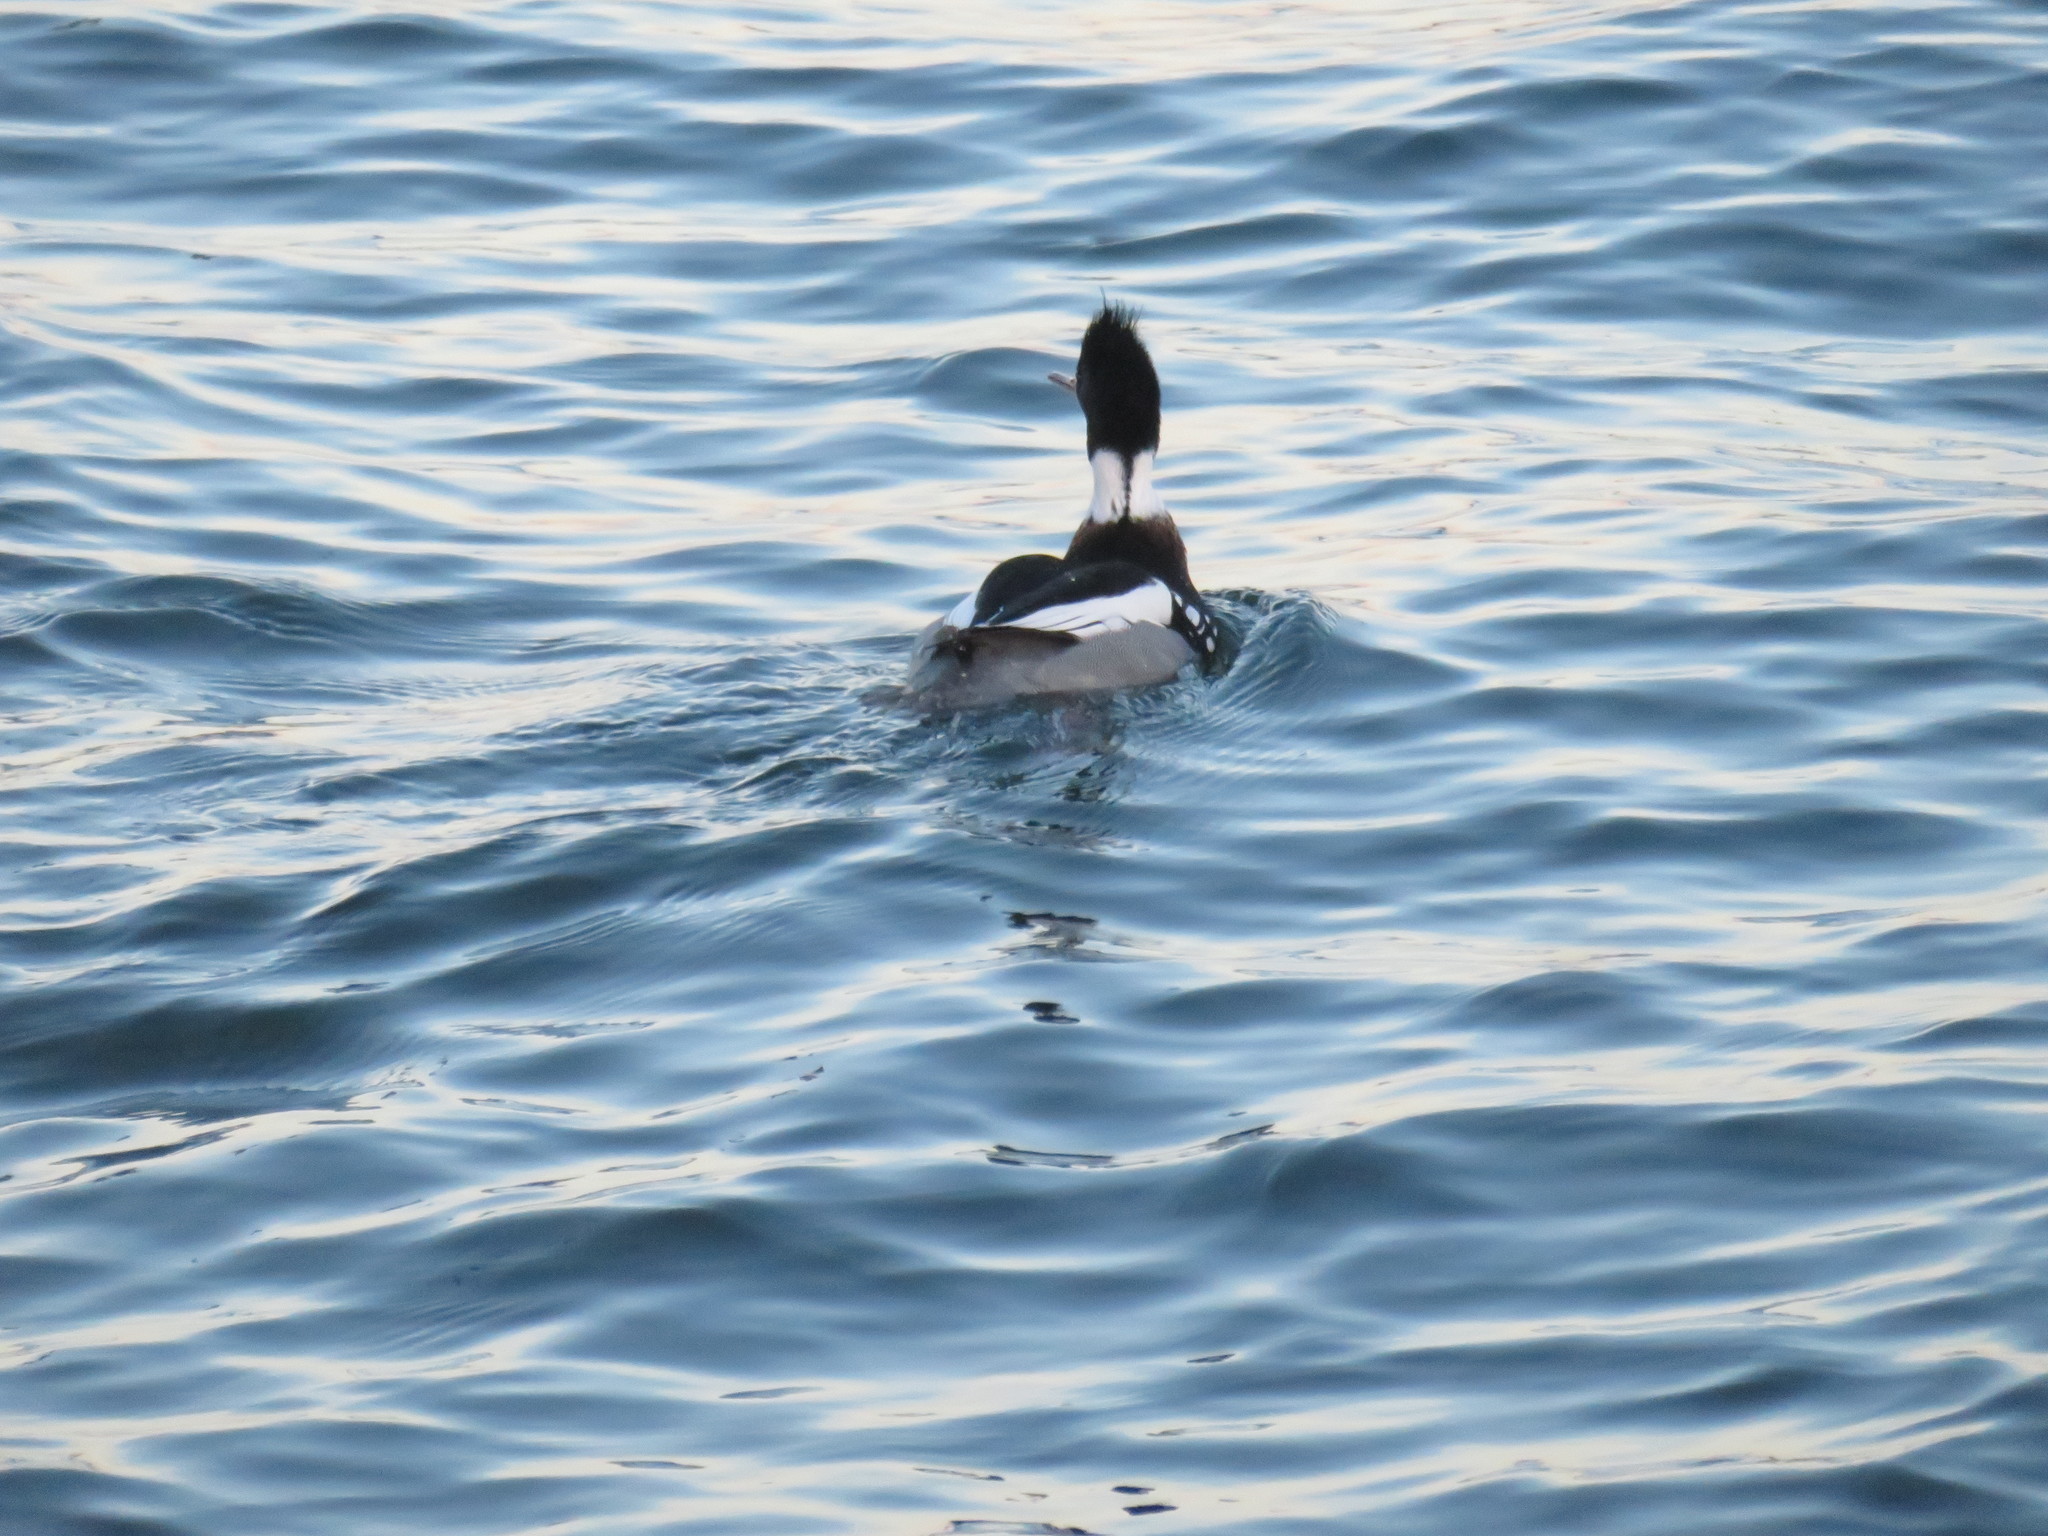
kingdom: Animalia
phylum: Chordata
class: Aves
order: Anseriformes
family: Anatidae
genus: Mergus
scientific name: Mergus serrator
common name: Red-breasted merganser
